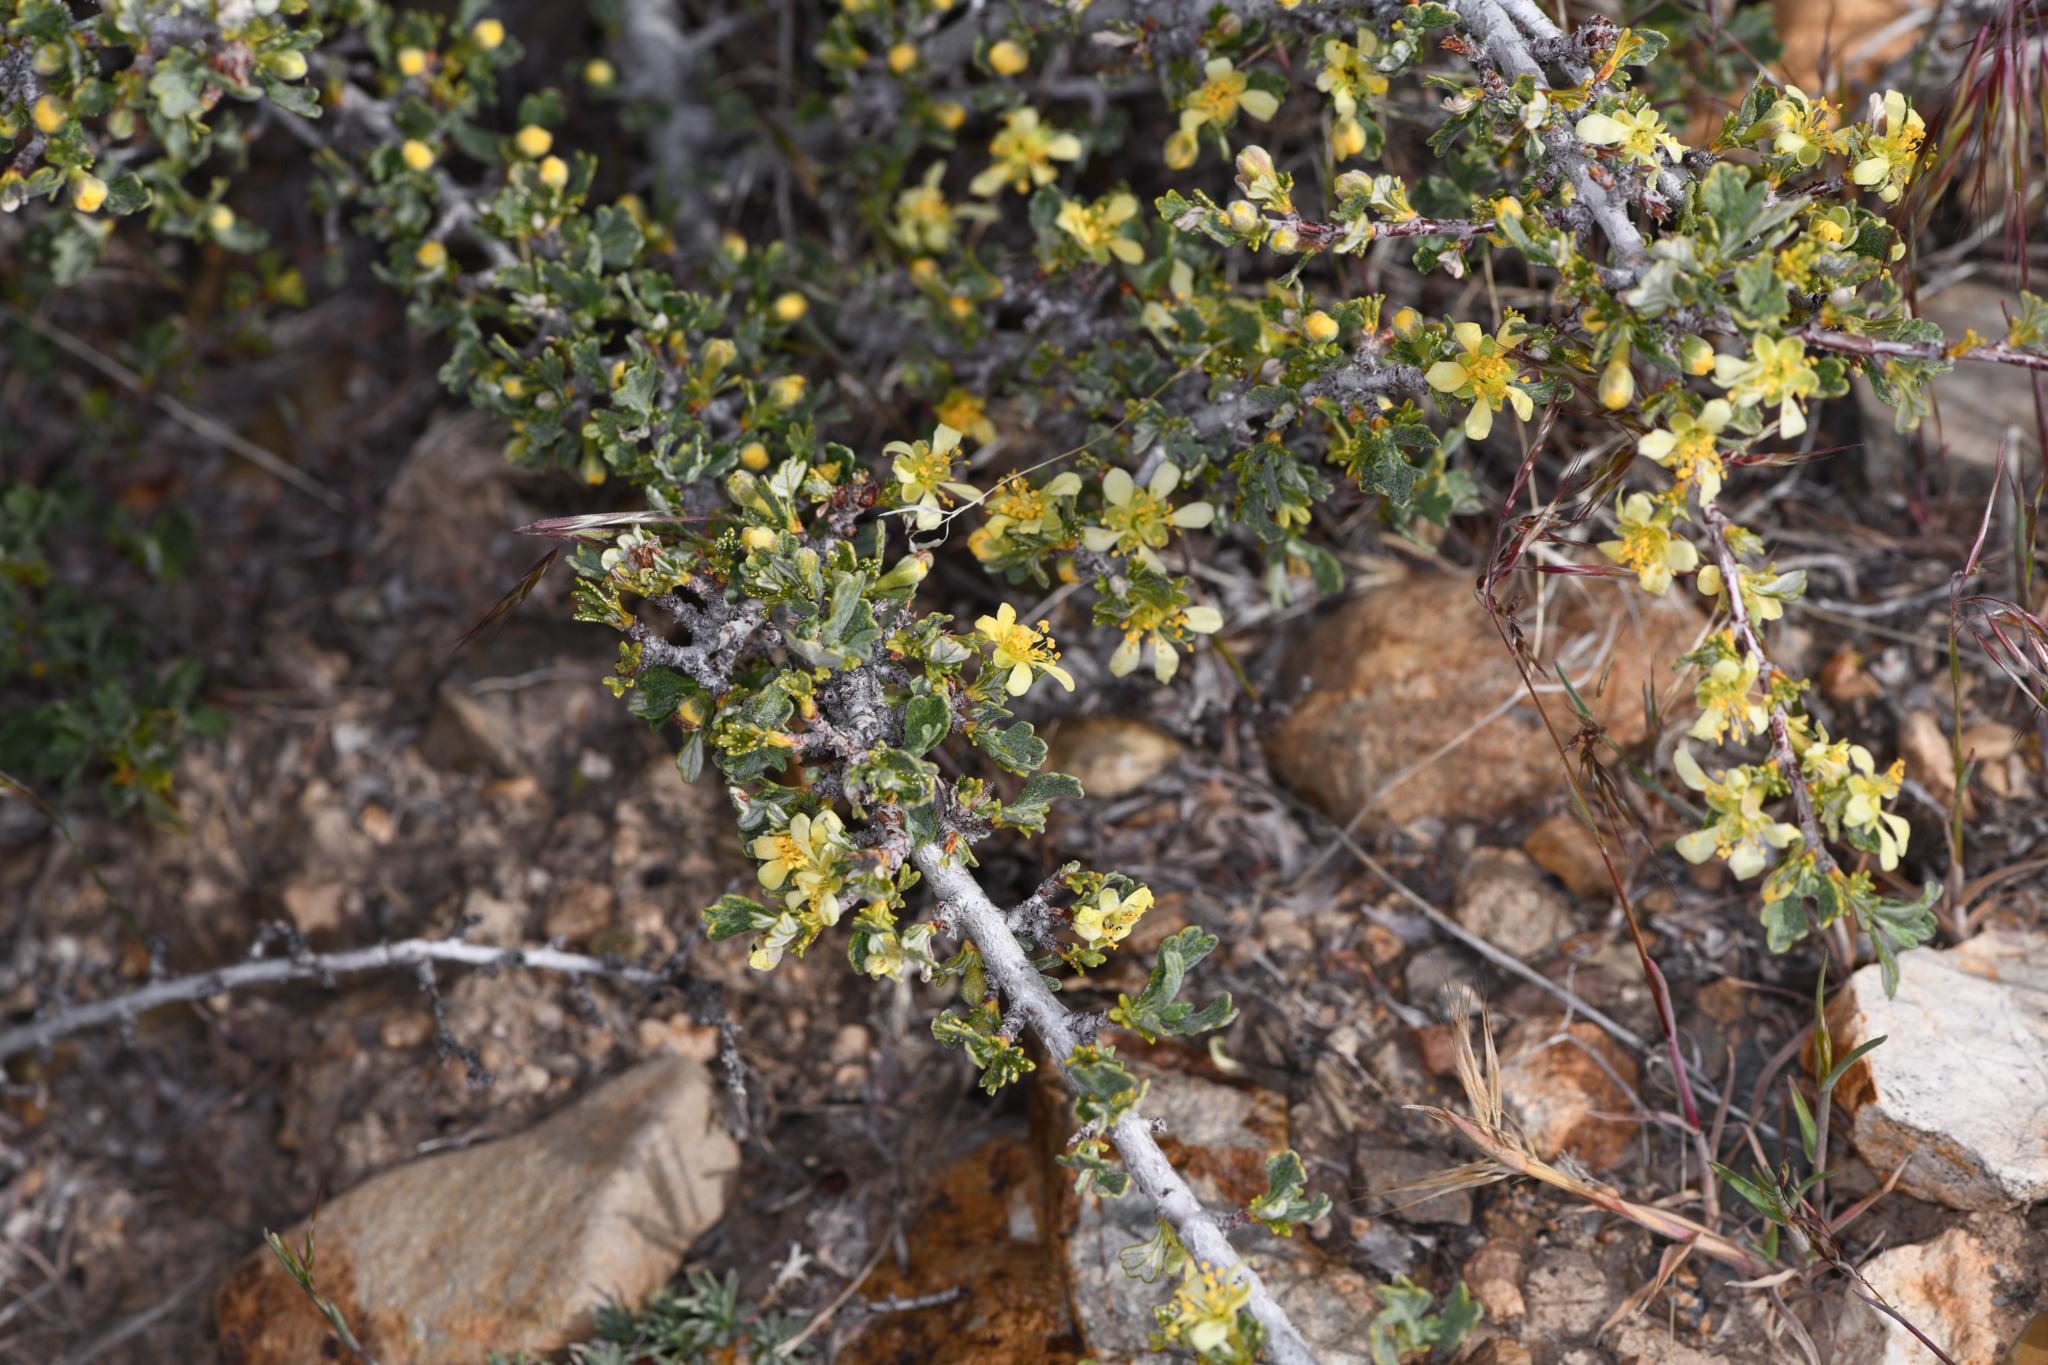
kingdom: Plantae
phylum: Tracheophyta
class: Magnoliopsida
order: Rosales
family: Rosaceae
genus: Purshia
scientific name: Purshia tridentata
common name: Antelope bitterbrush
